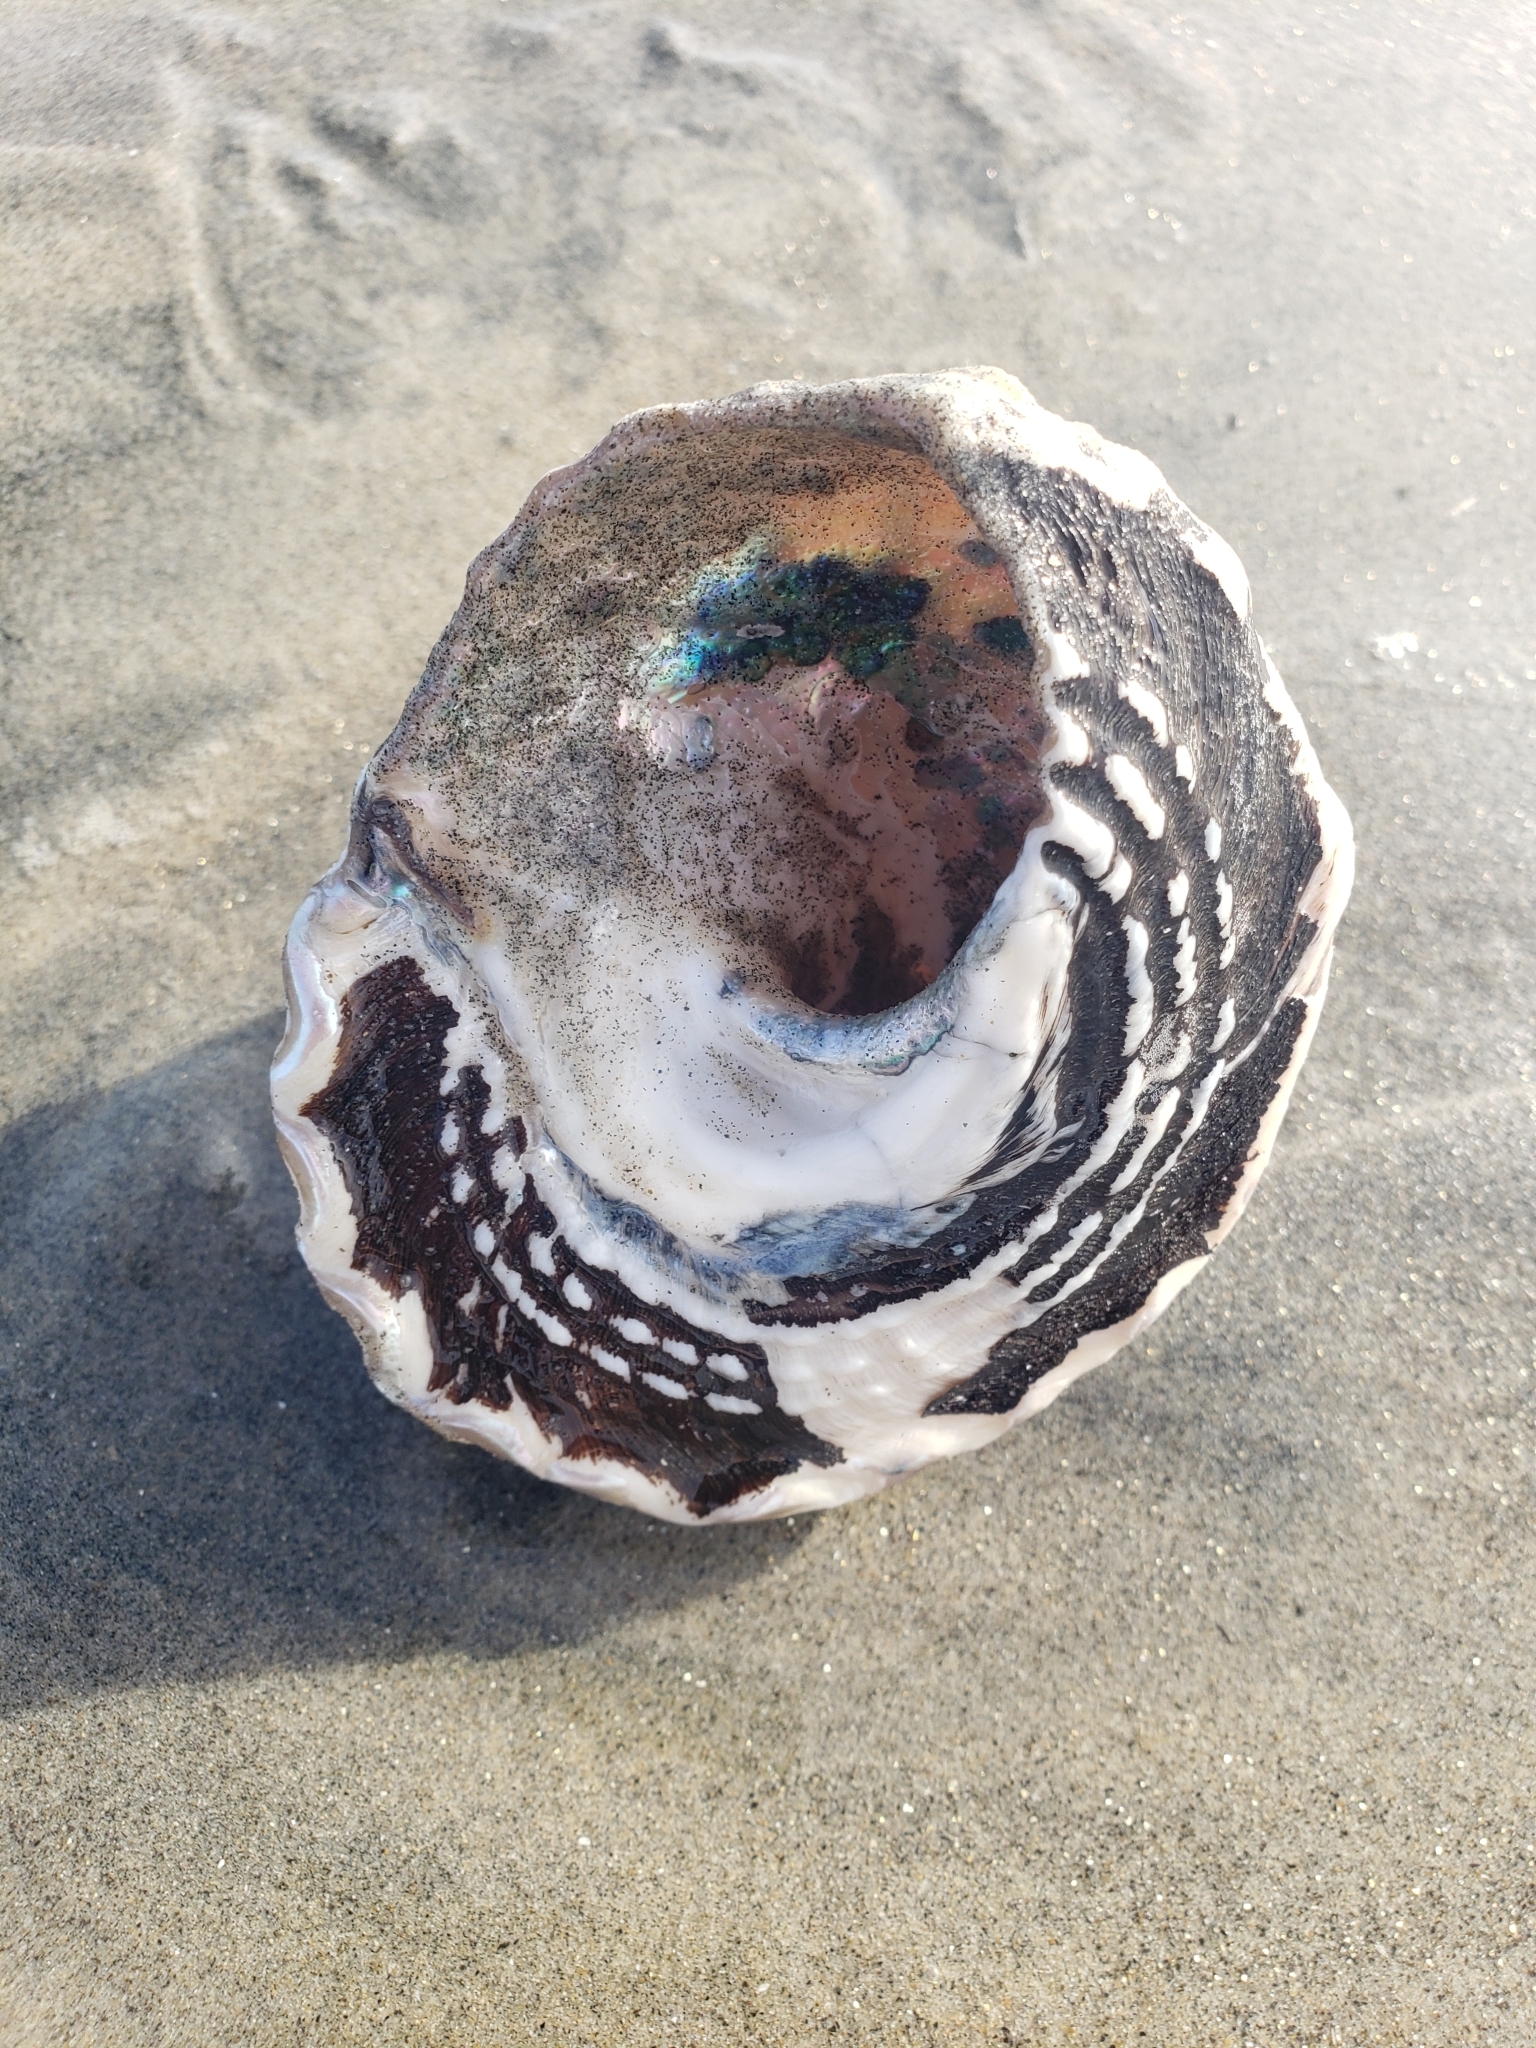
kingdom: Animalia
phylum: Mollusca
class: Gastropoda
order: Trochida
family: Turbinidae
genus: Megastraea
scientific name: Megastraea undosa
